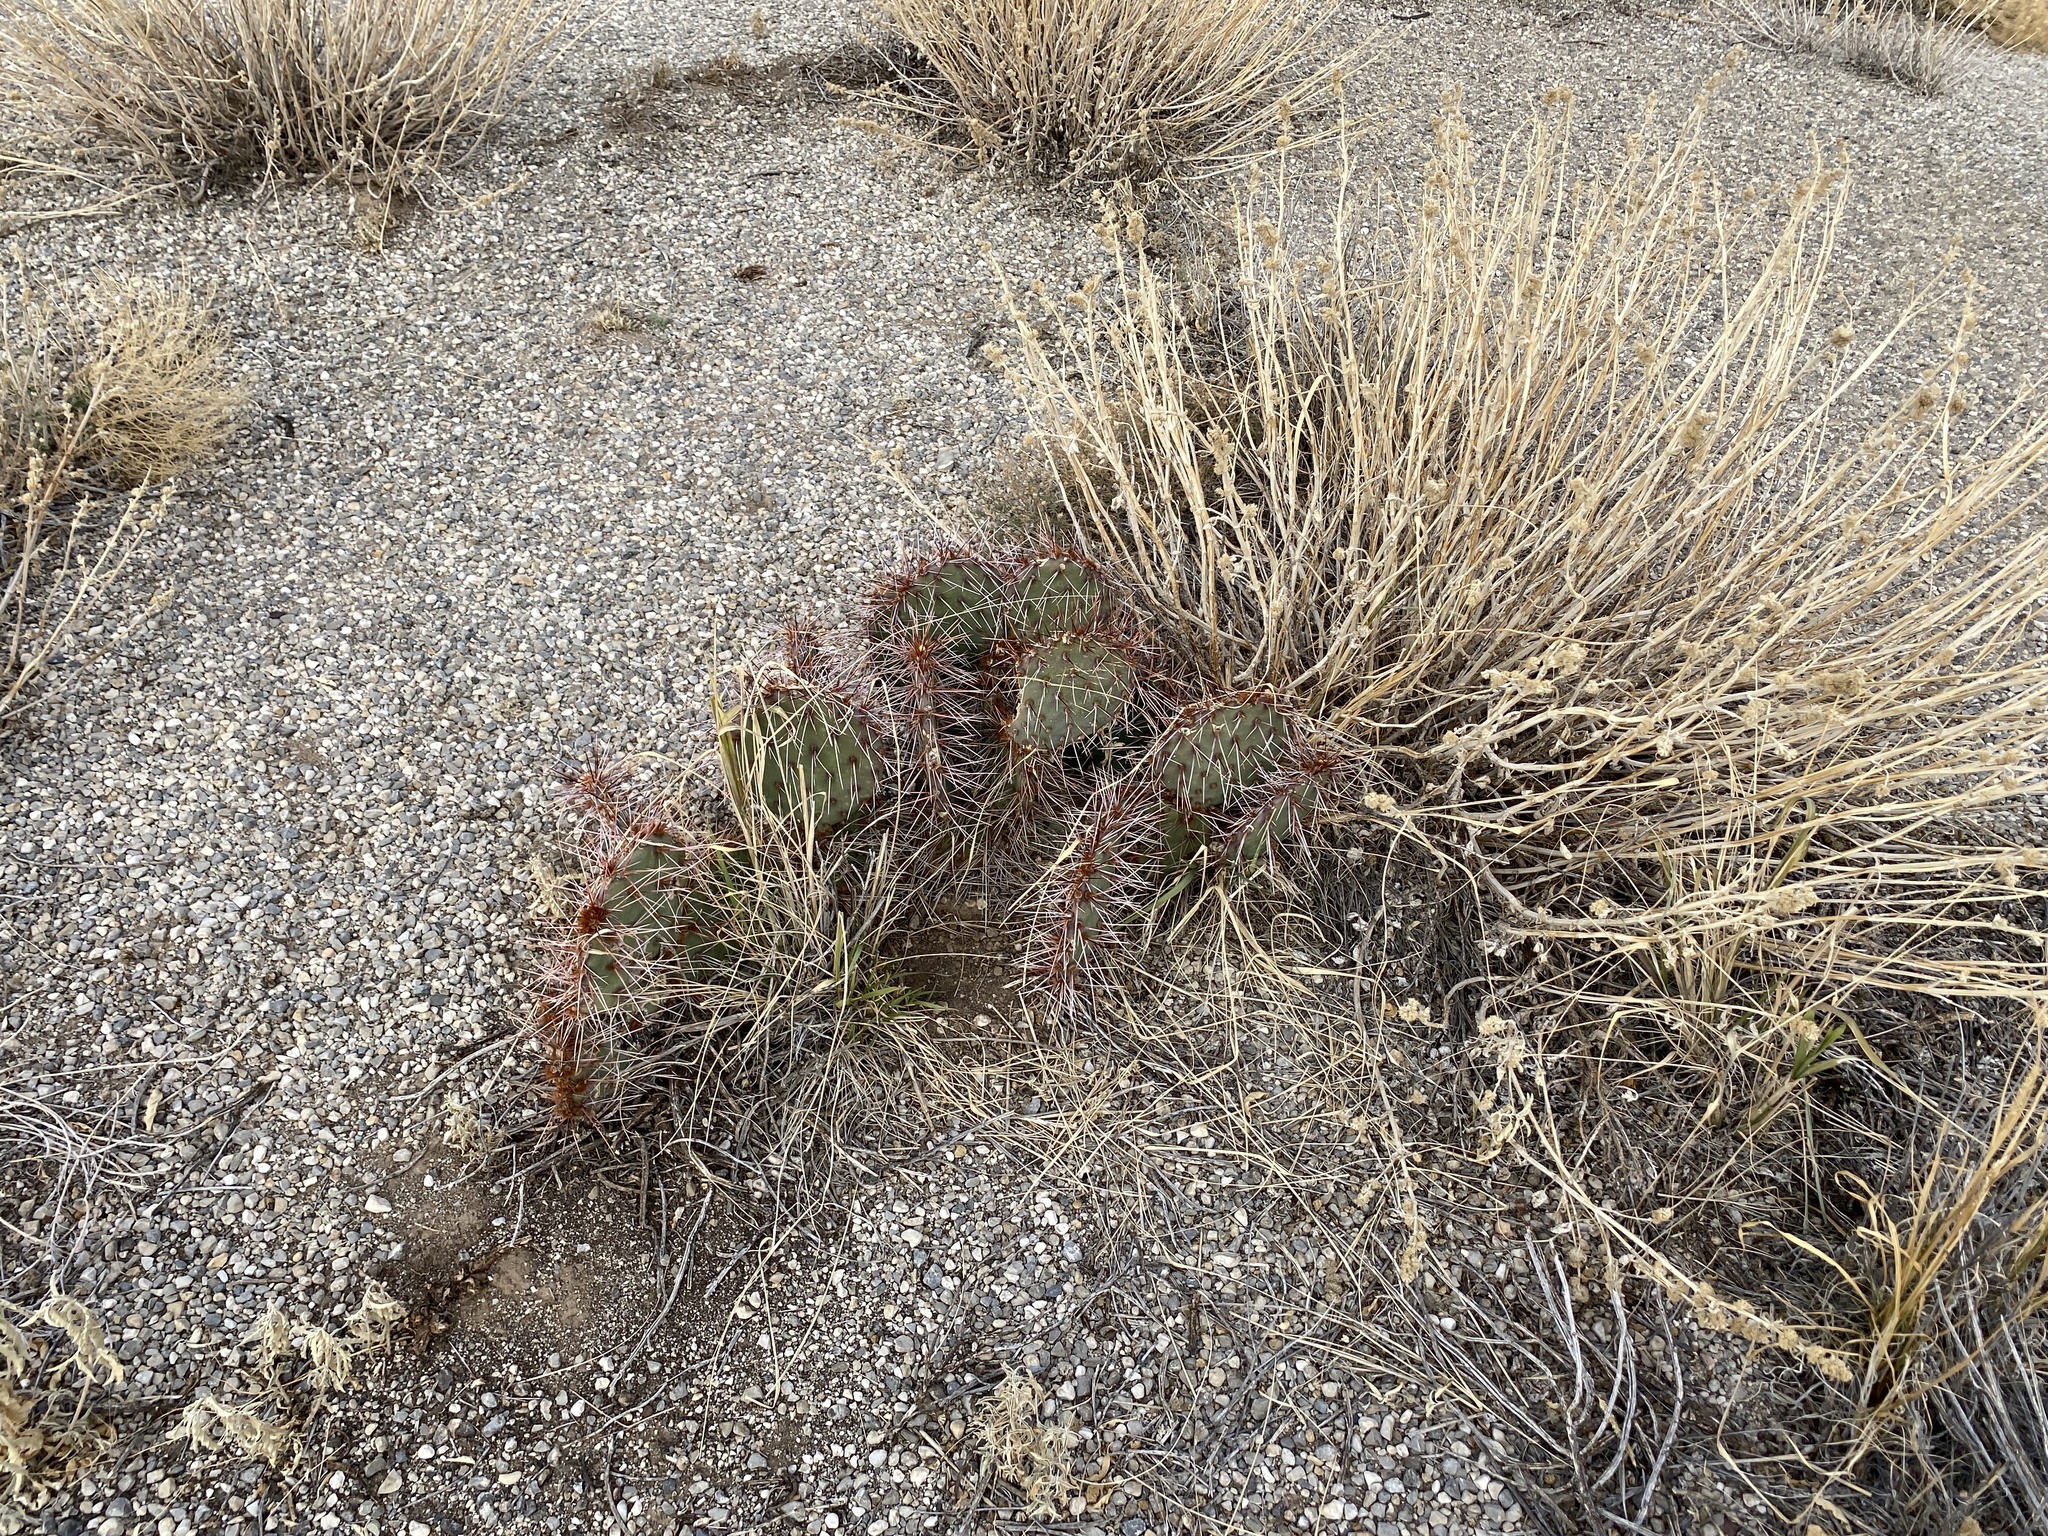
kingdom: Plantae
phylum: Tracheophyta
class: Magnoliopsida
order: Caryophyllales
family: Cactaceae
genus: Opuntia
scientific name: Opuntia macrorhiza
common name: Grassland pricklypear
